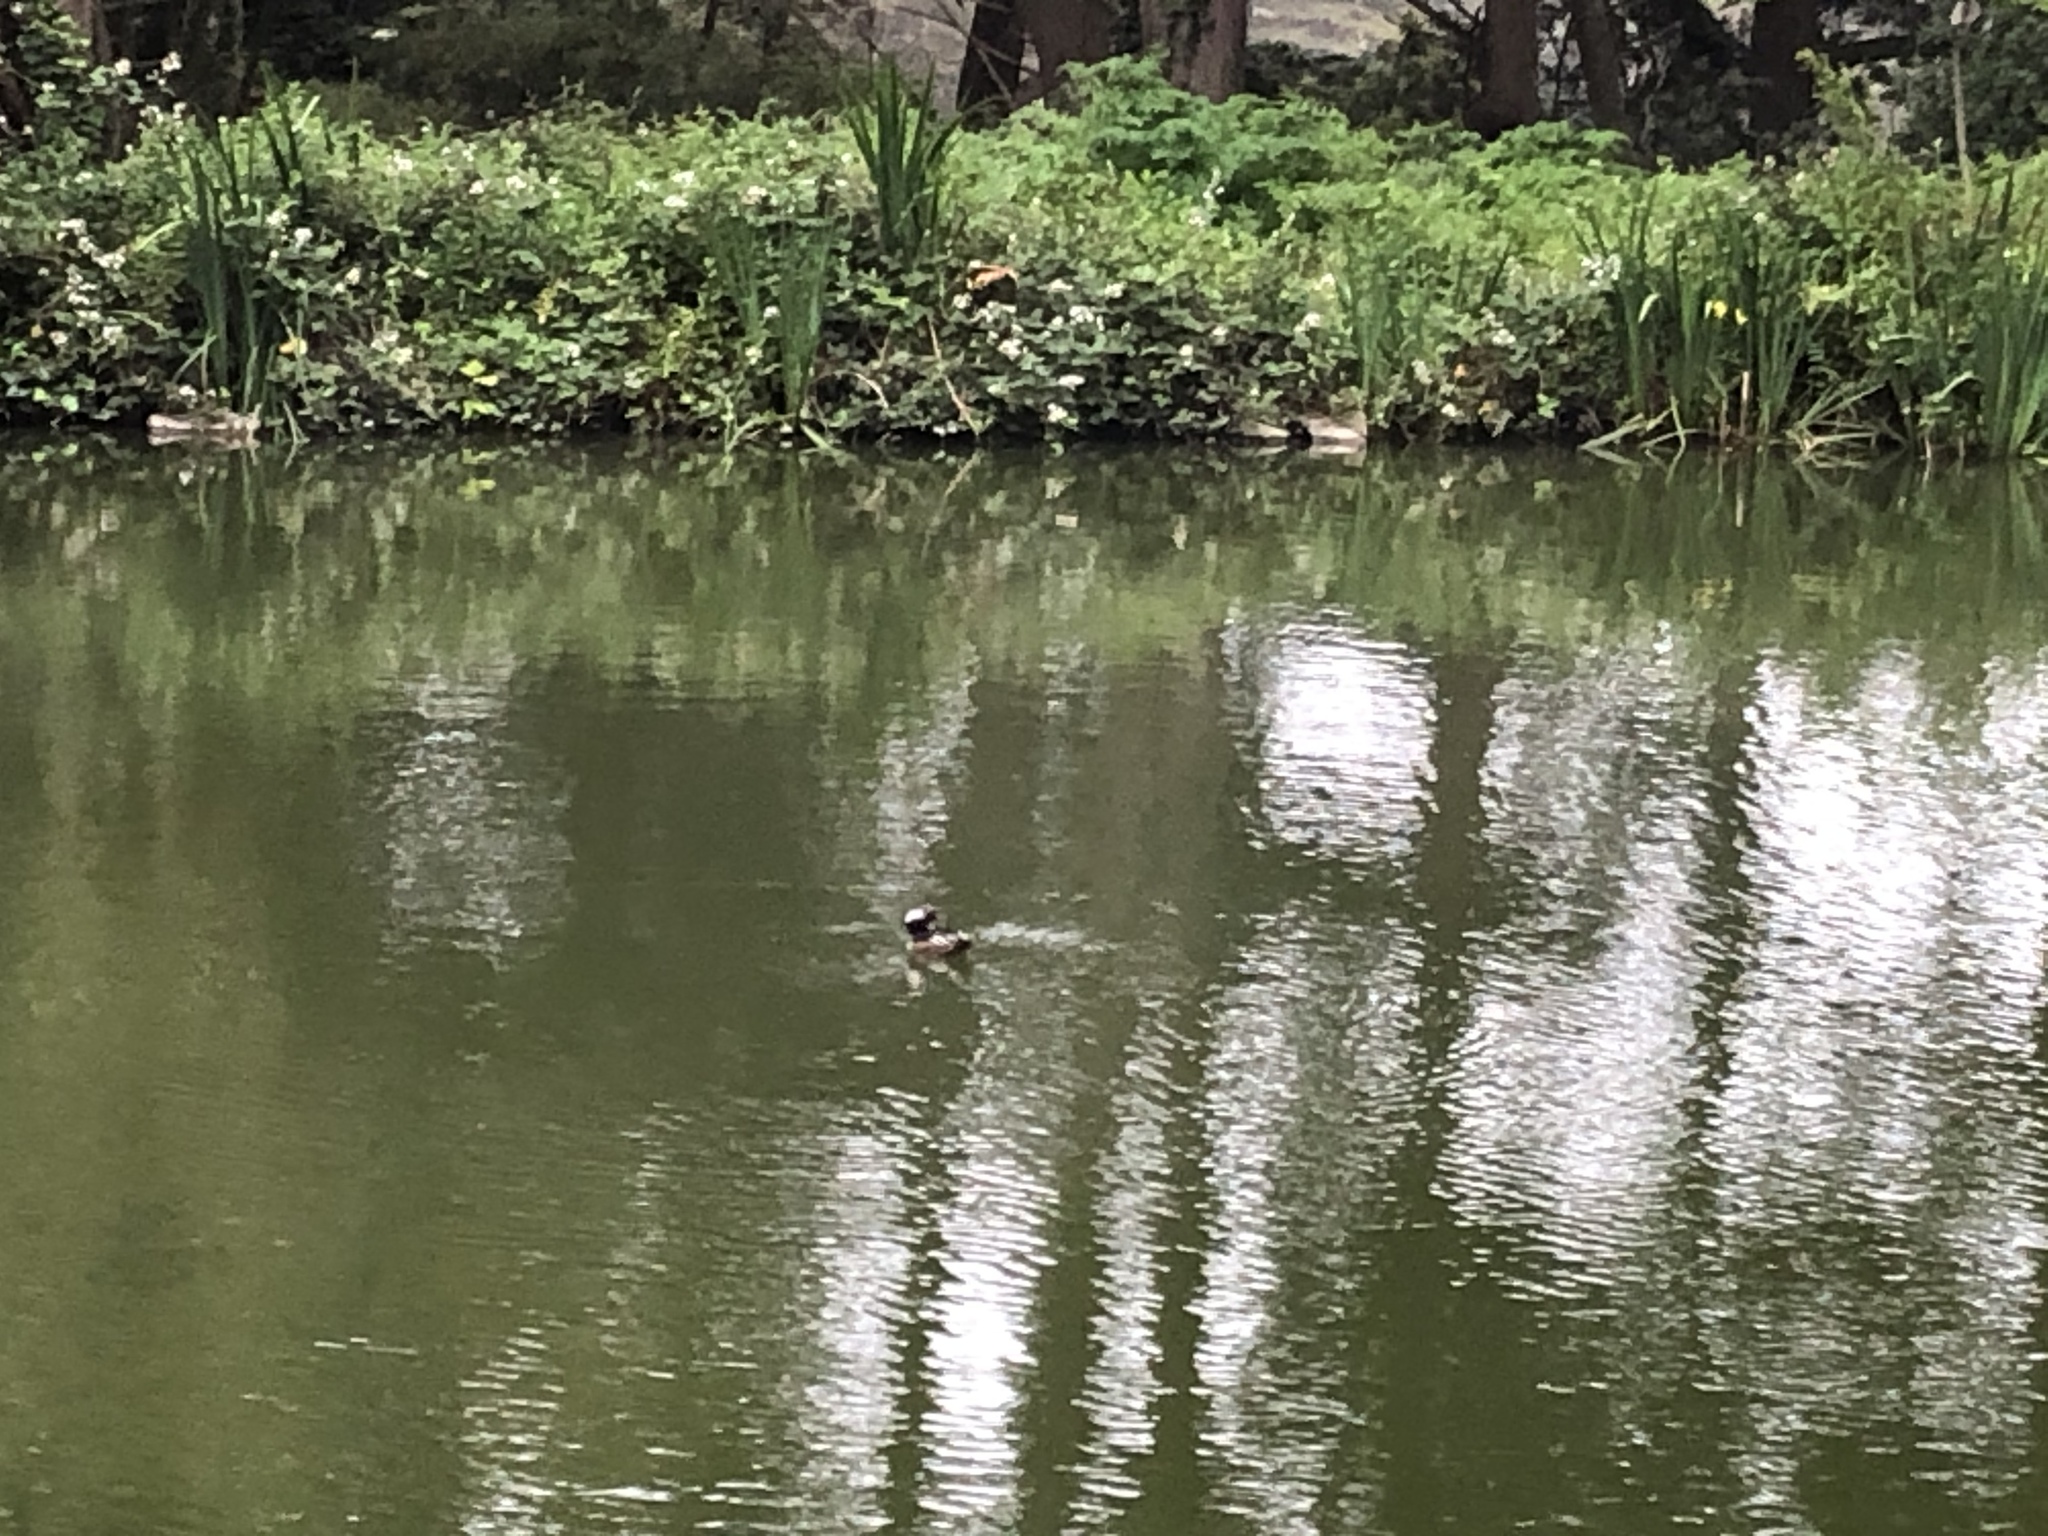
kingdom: Animalia
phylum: Chordata
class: Aves
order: Anseriformes
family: Anatidae
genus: Lophodytes
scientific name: Lophodytes cucullatus
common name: Hooded merganser
